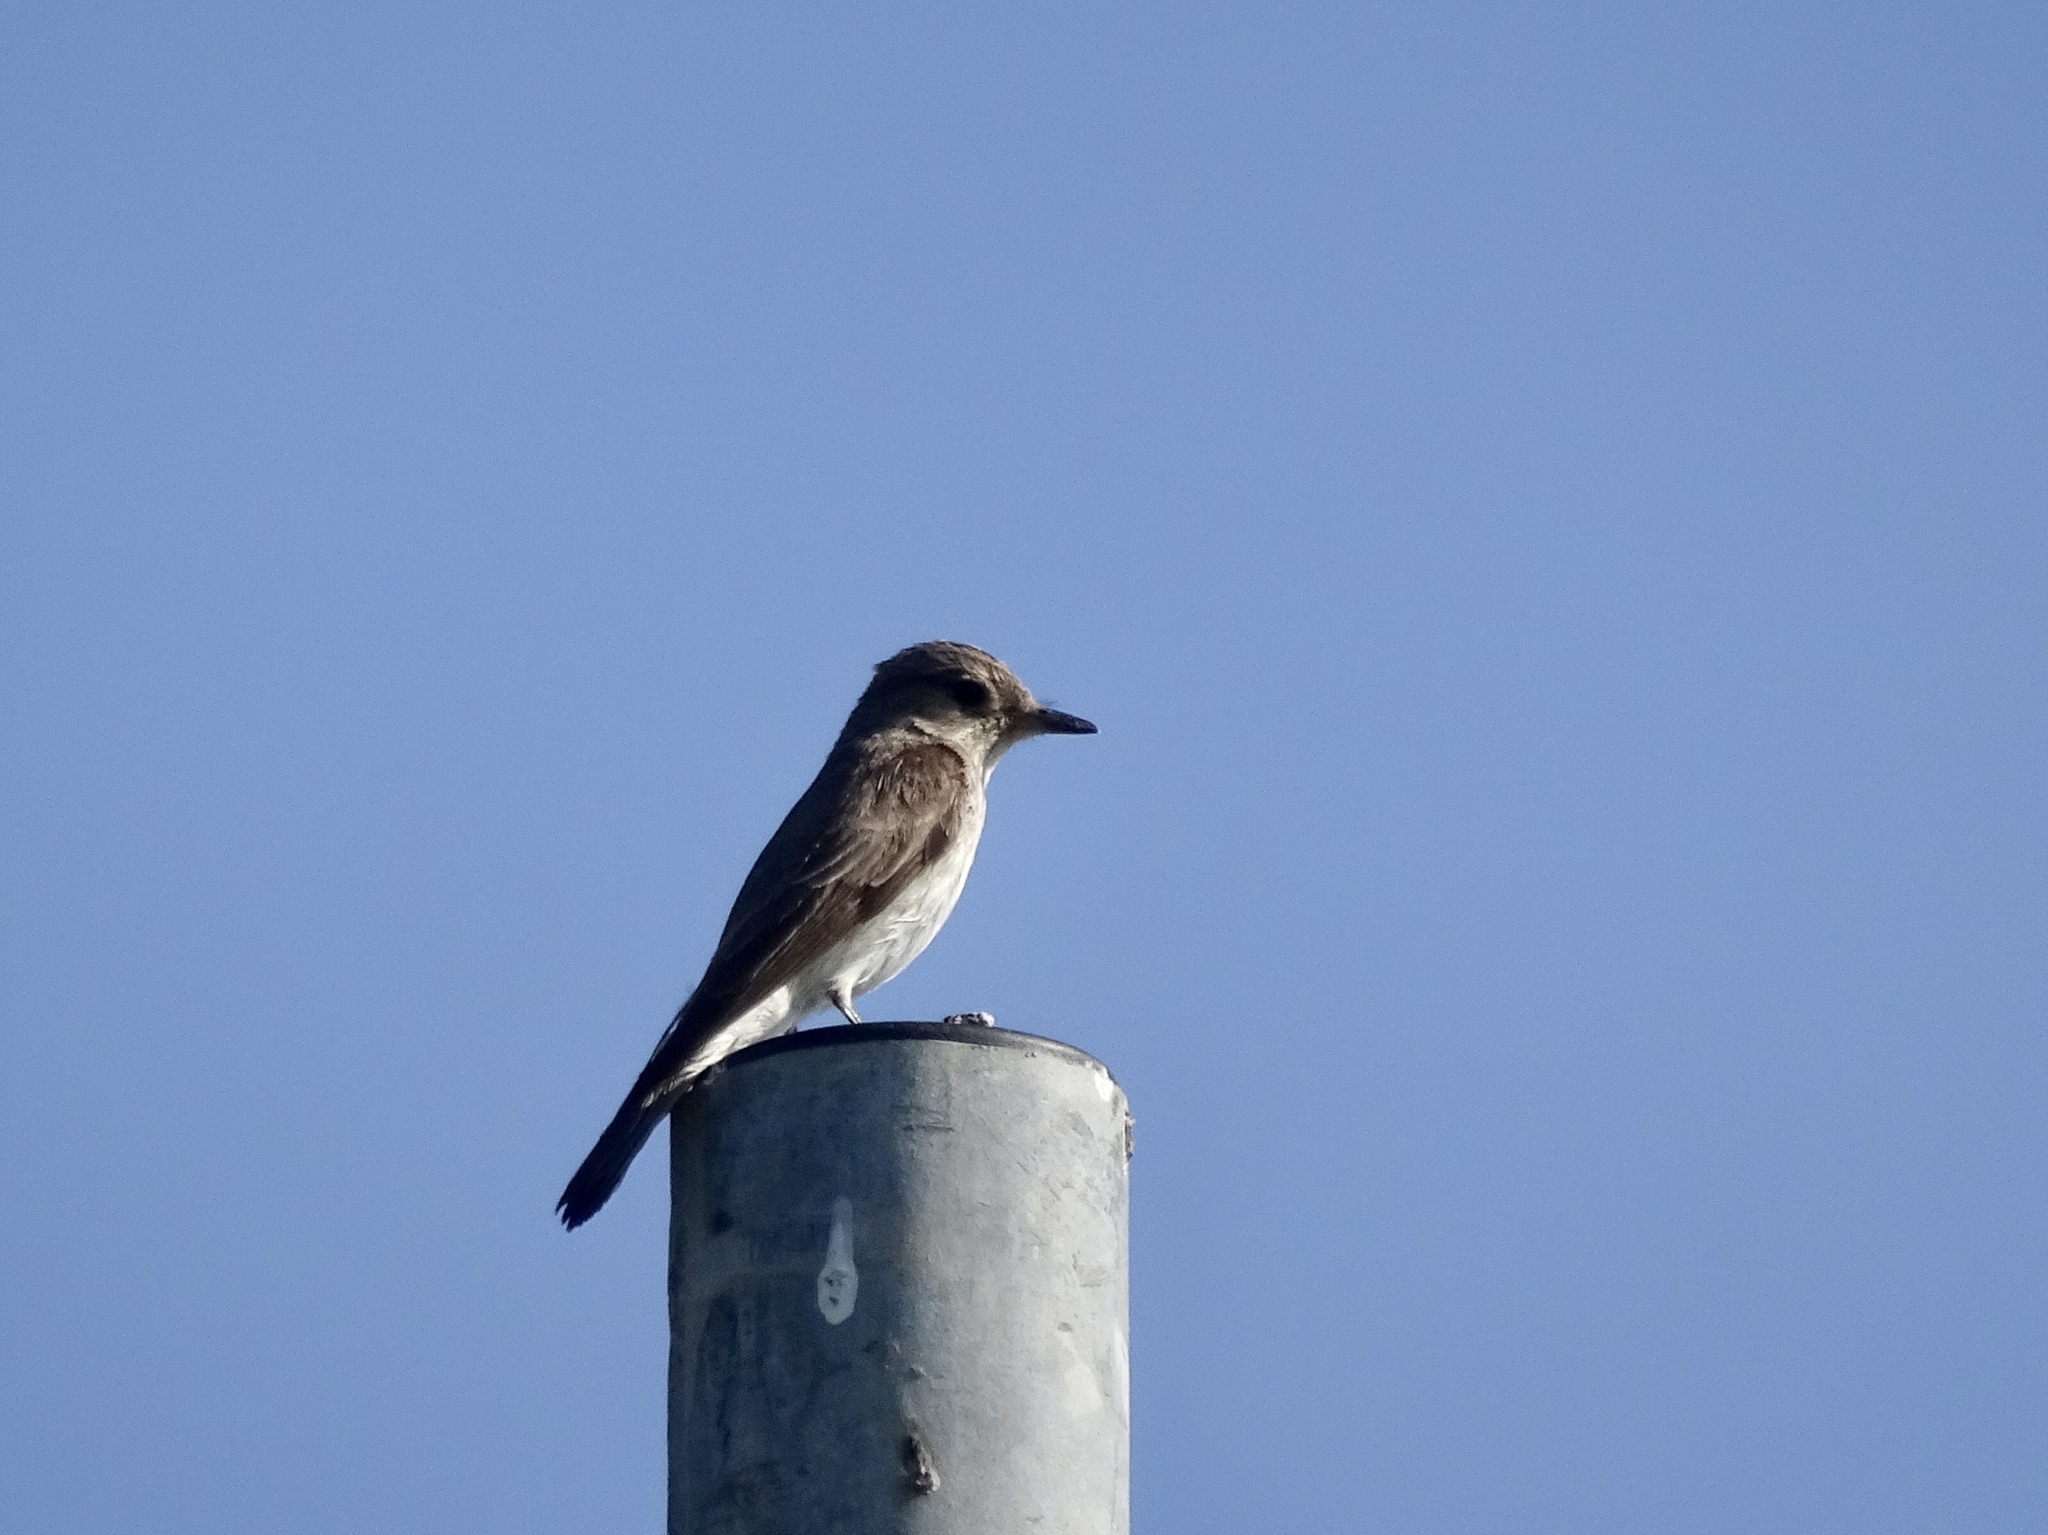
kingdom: Animalia
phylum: Chordata
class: Aves
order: Passeriformes
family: Muscicapidae
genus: Muscicapa
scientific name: Muscicapa striata
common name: Spotted flycatcher
